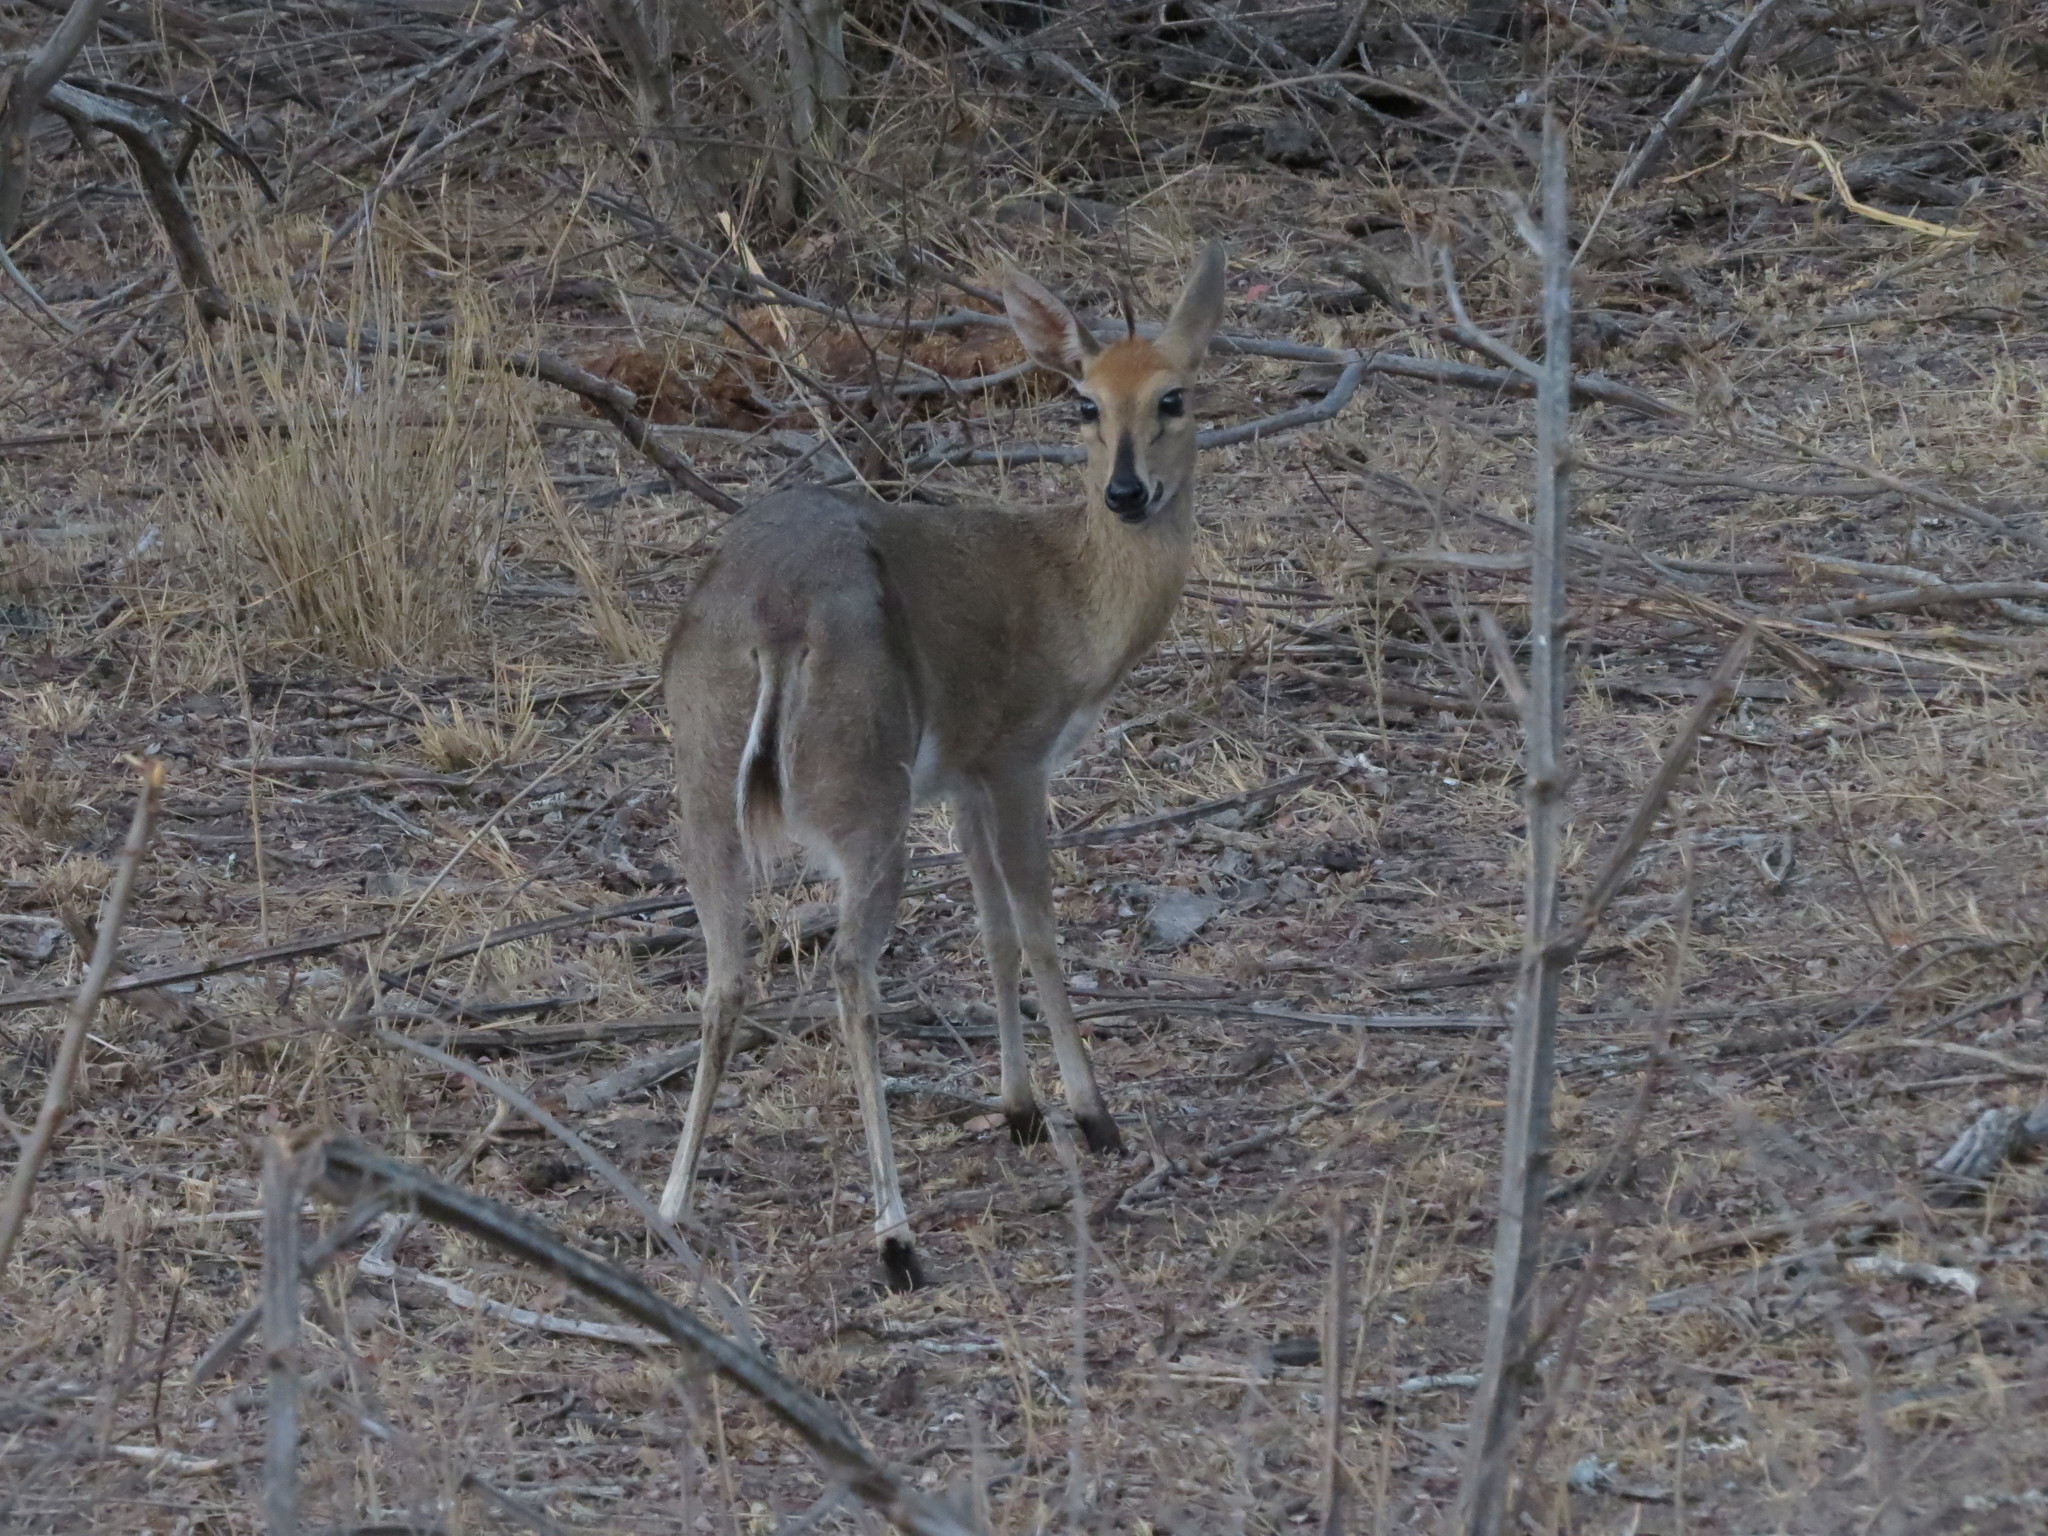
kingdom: Animalia
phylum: Chordata
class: Mammalia
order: Artiodactyla
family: Bovidae
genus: Sylvicapra
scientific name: Sylvicapra grimmia
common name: Bush duiker
